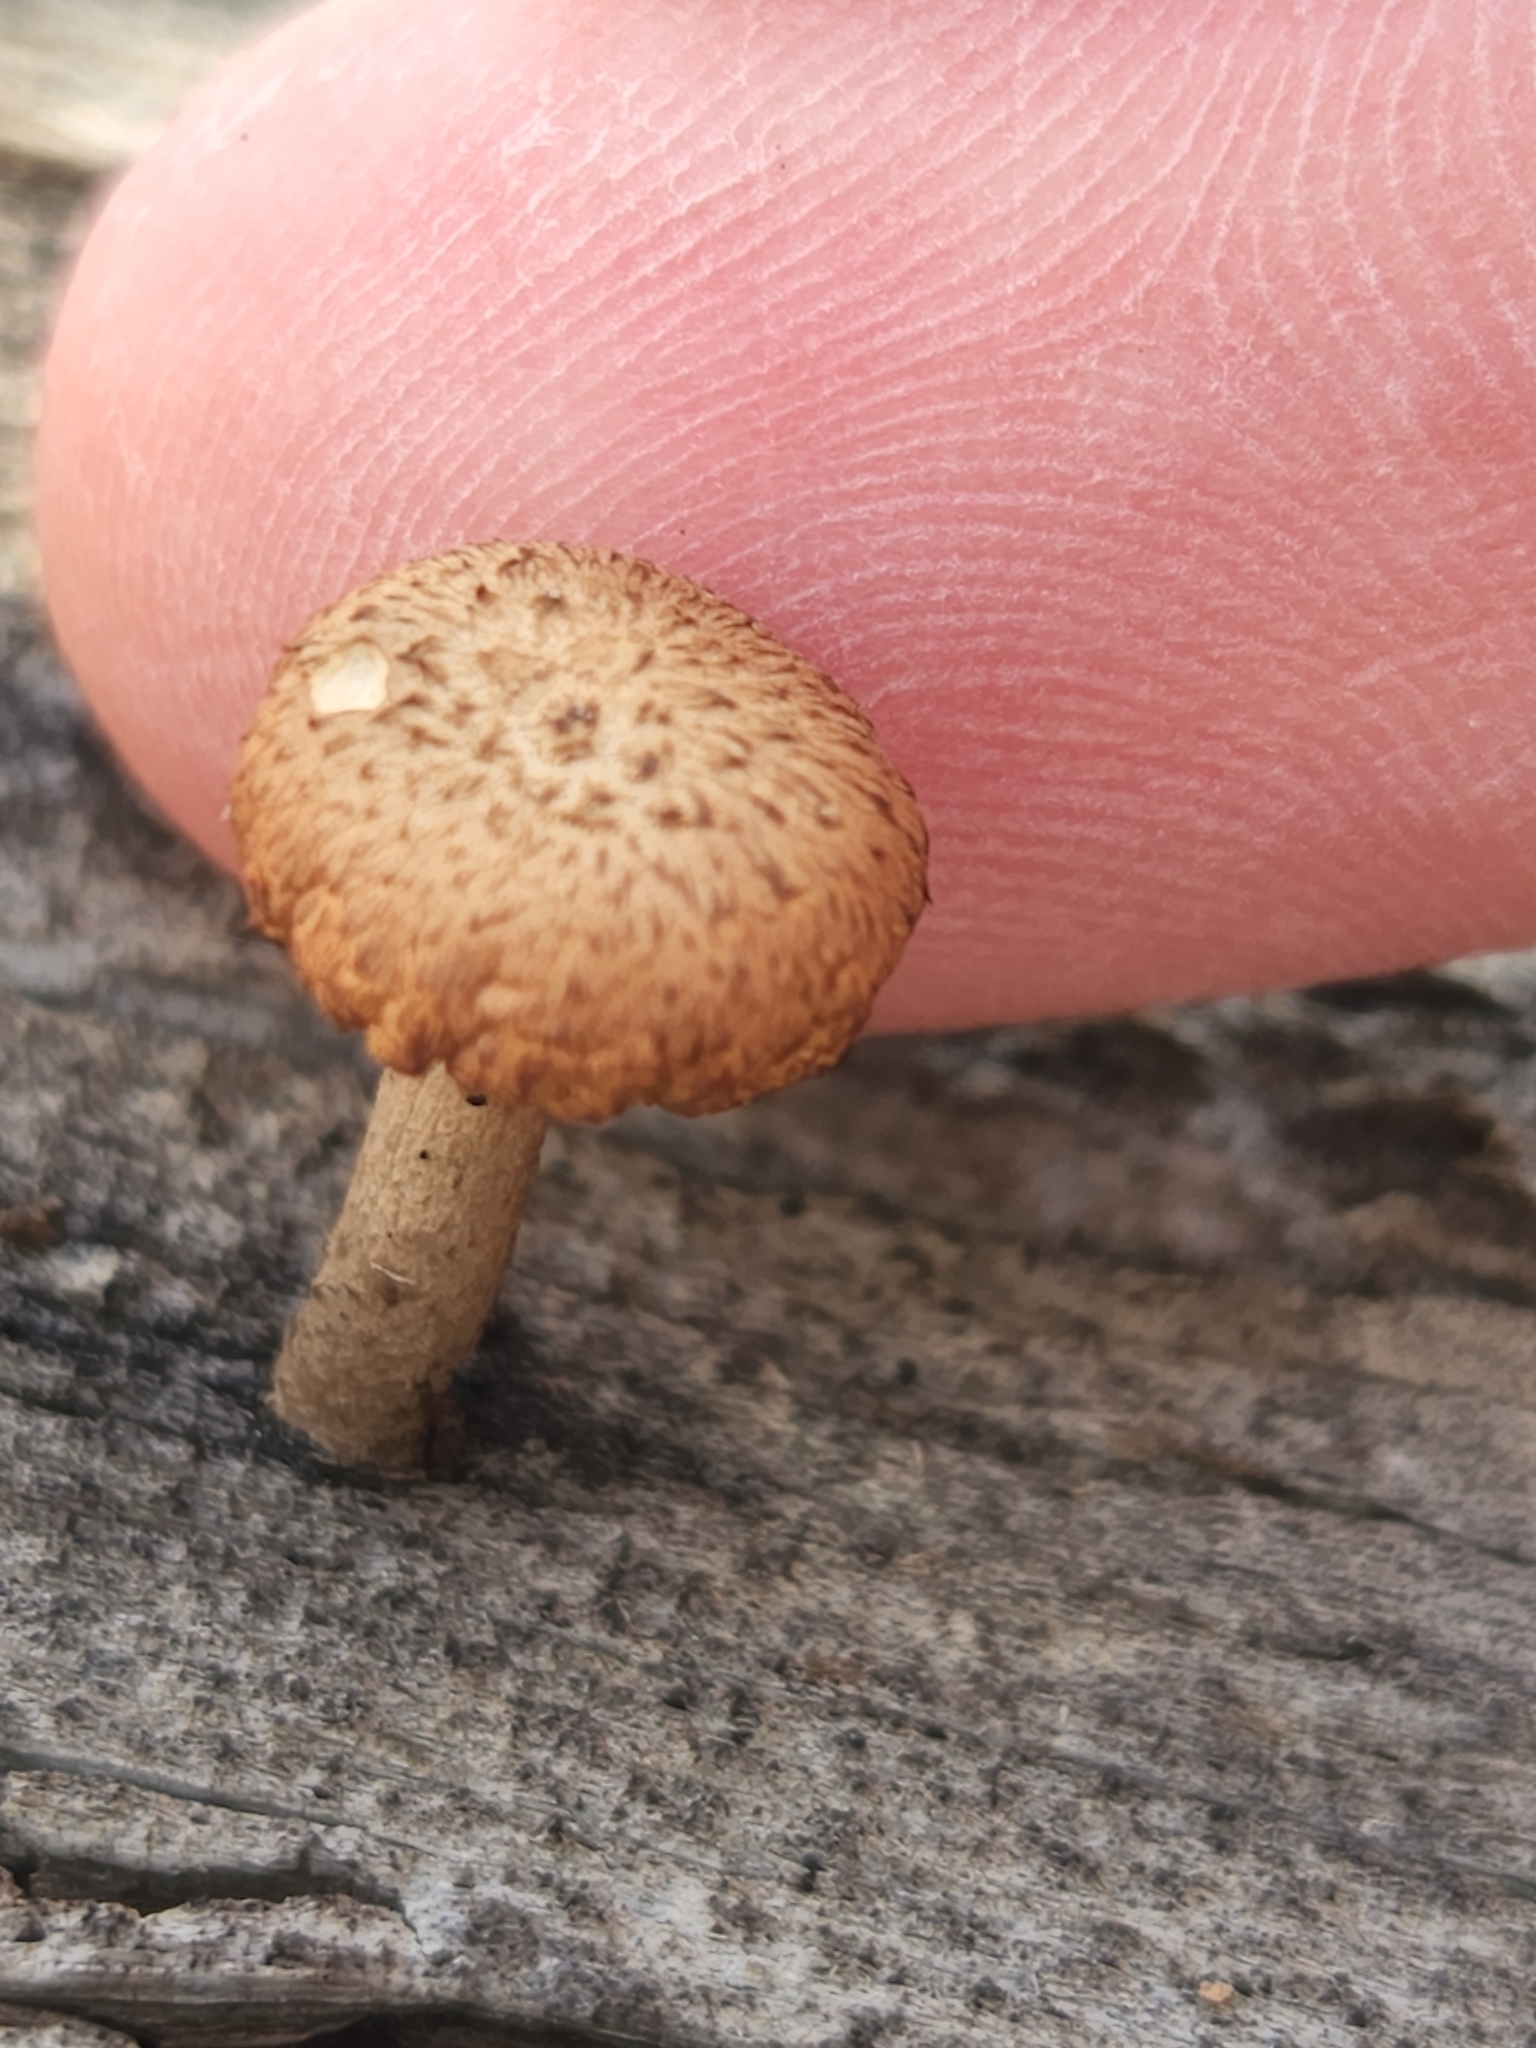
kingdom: Fungi
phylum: Basidiomycota
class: Agaricomycetes
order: Gloeophyllales
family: Gloeophyllaceae
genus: Heliocybe
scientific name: Heliocybe sulcata
